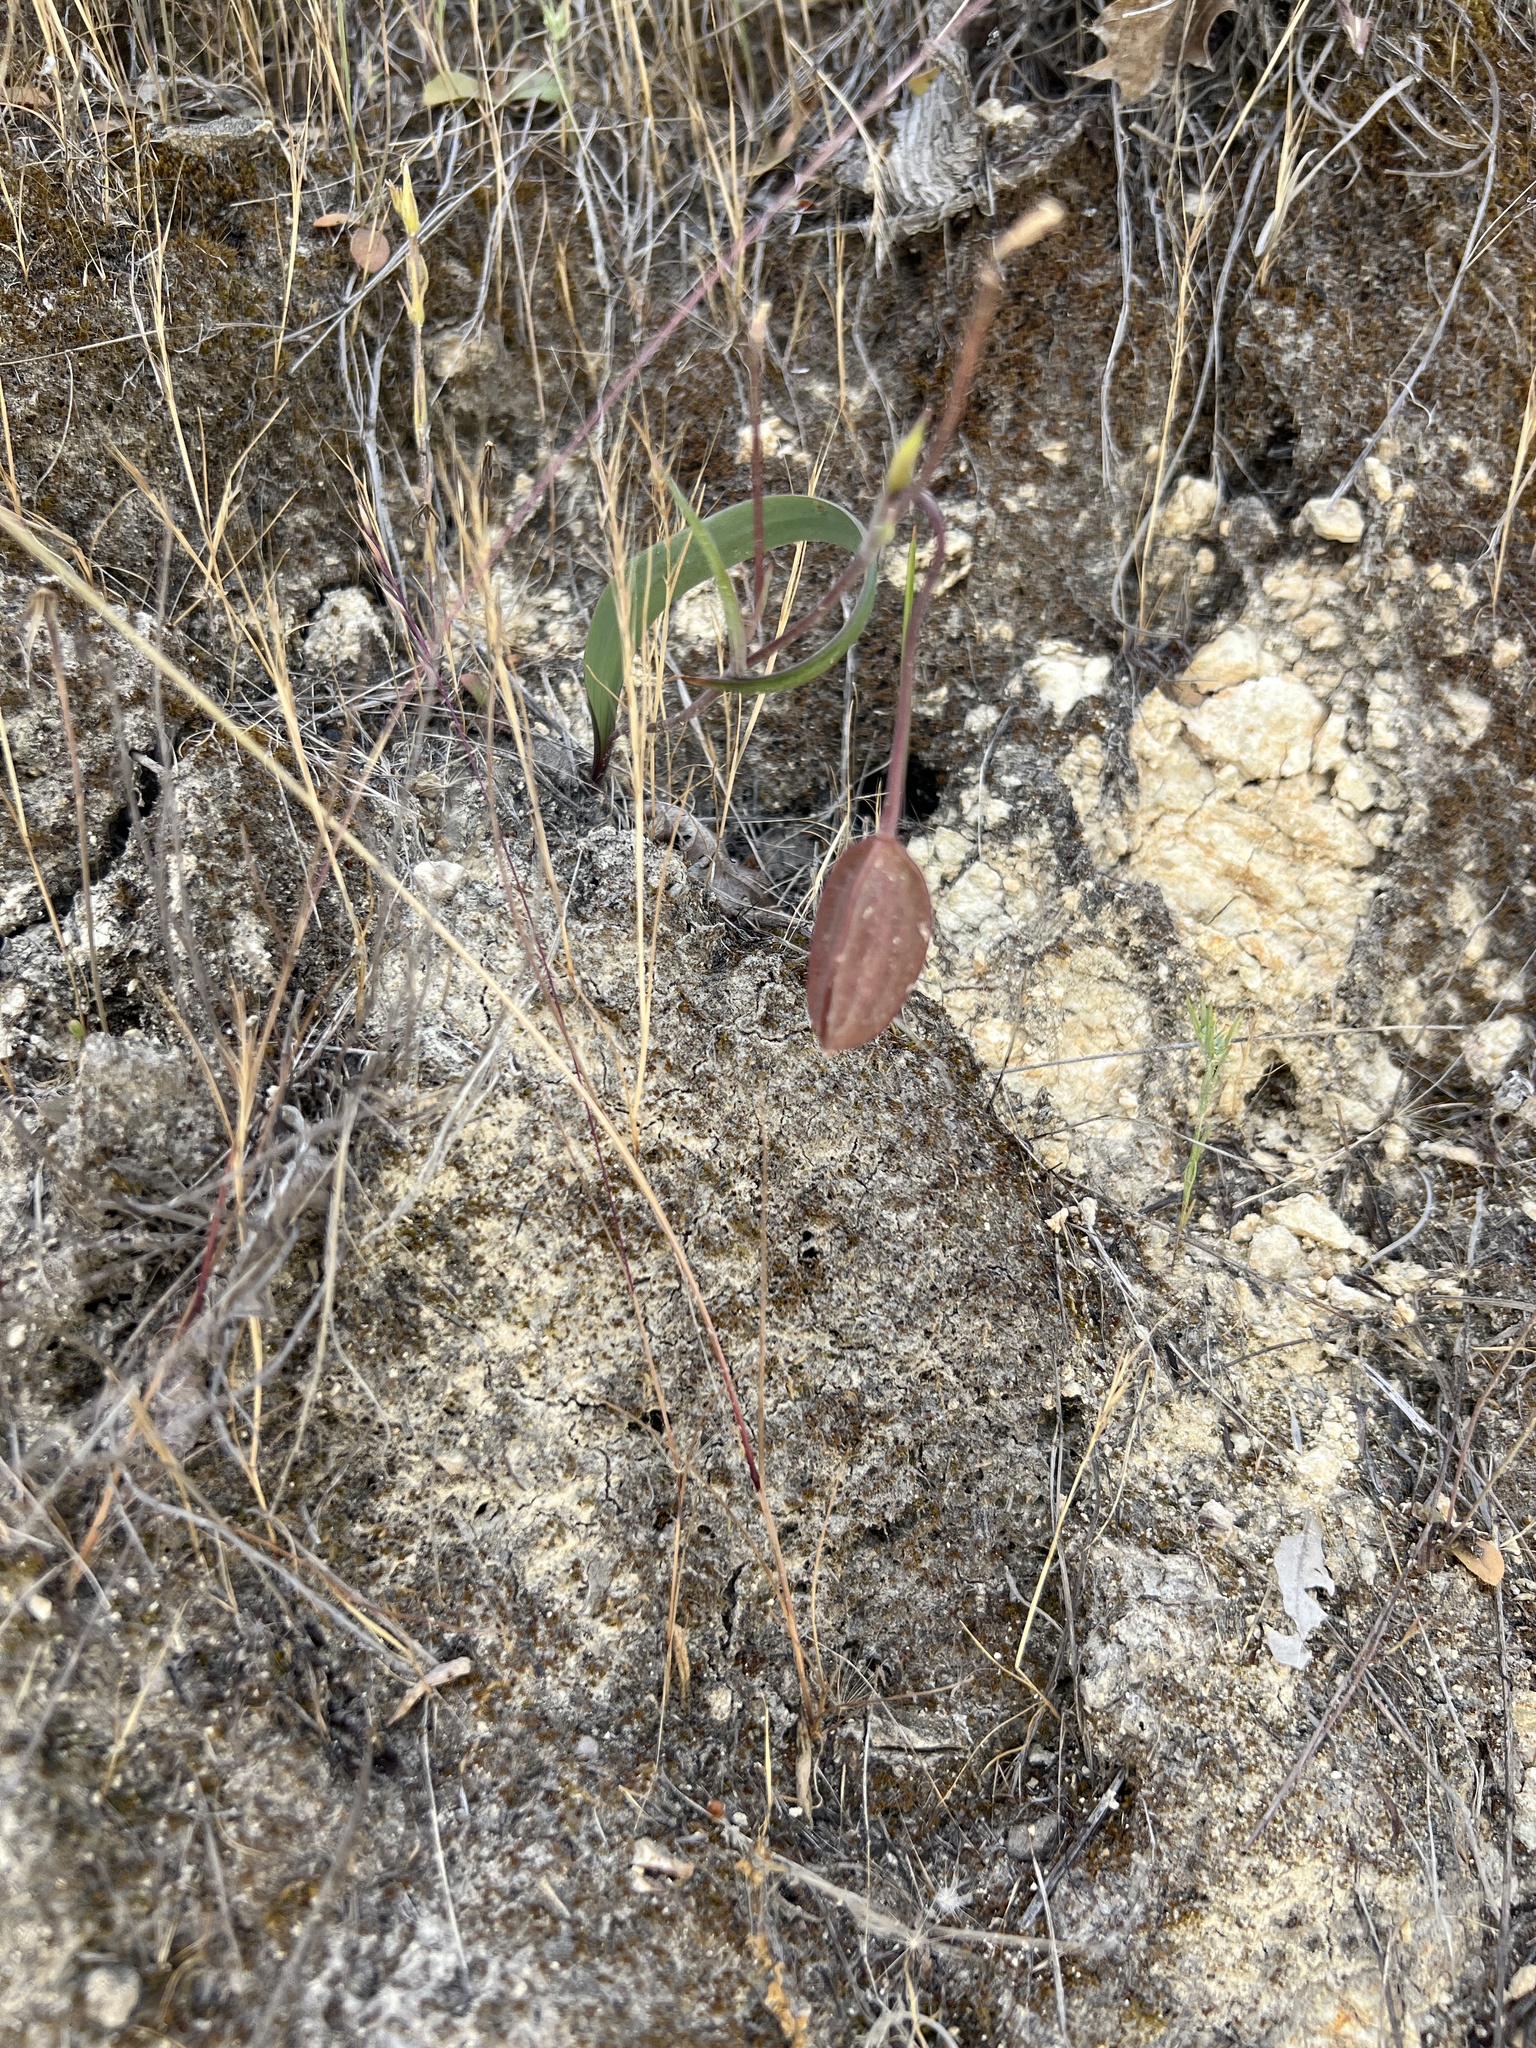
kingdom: Plantae
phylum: Tracheophyta
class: Liliopsida
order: Liliales
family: Liliaceae
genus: Calochortus
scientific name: Calochortus tolmiei
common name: Pussy-ears
